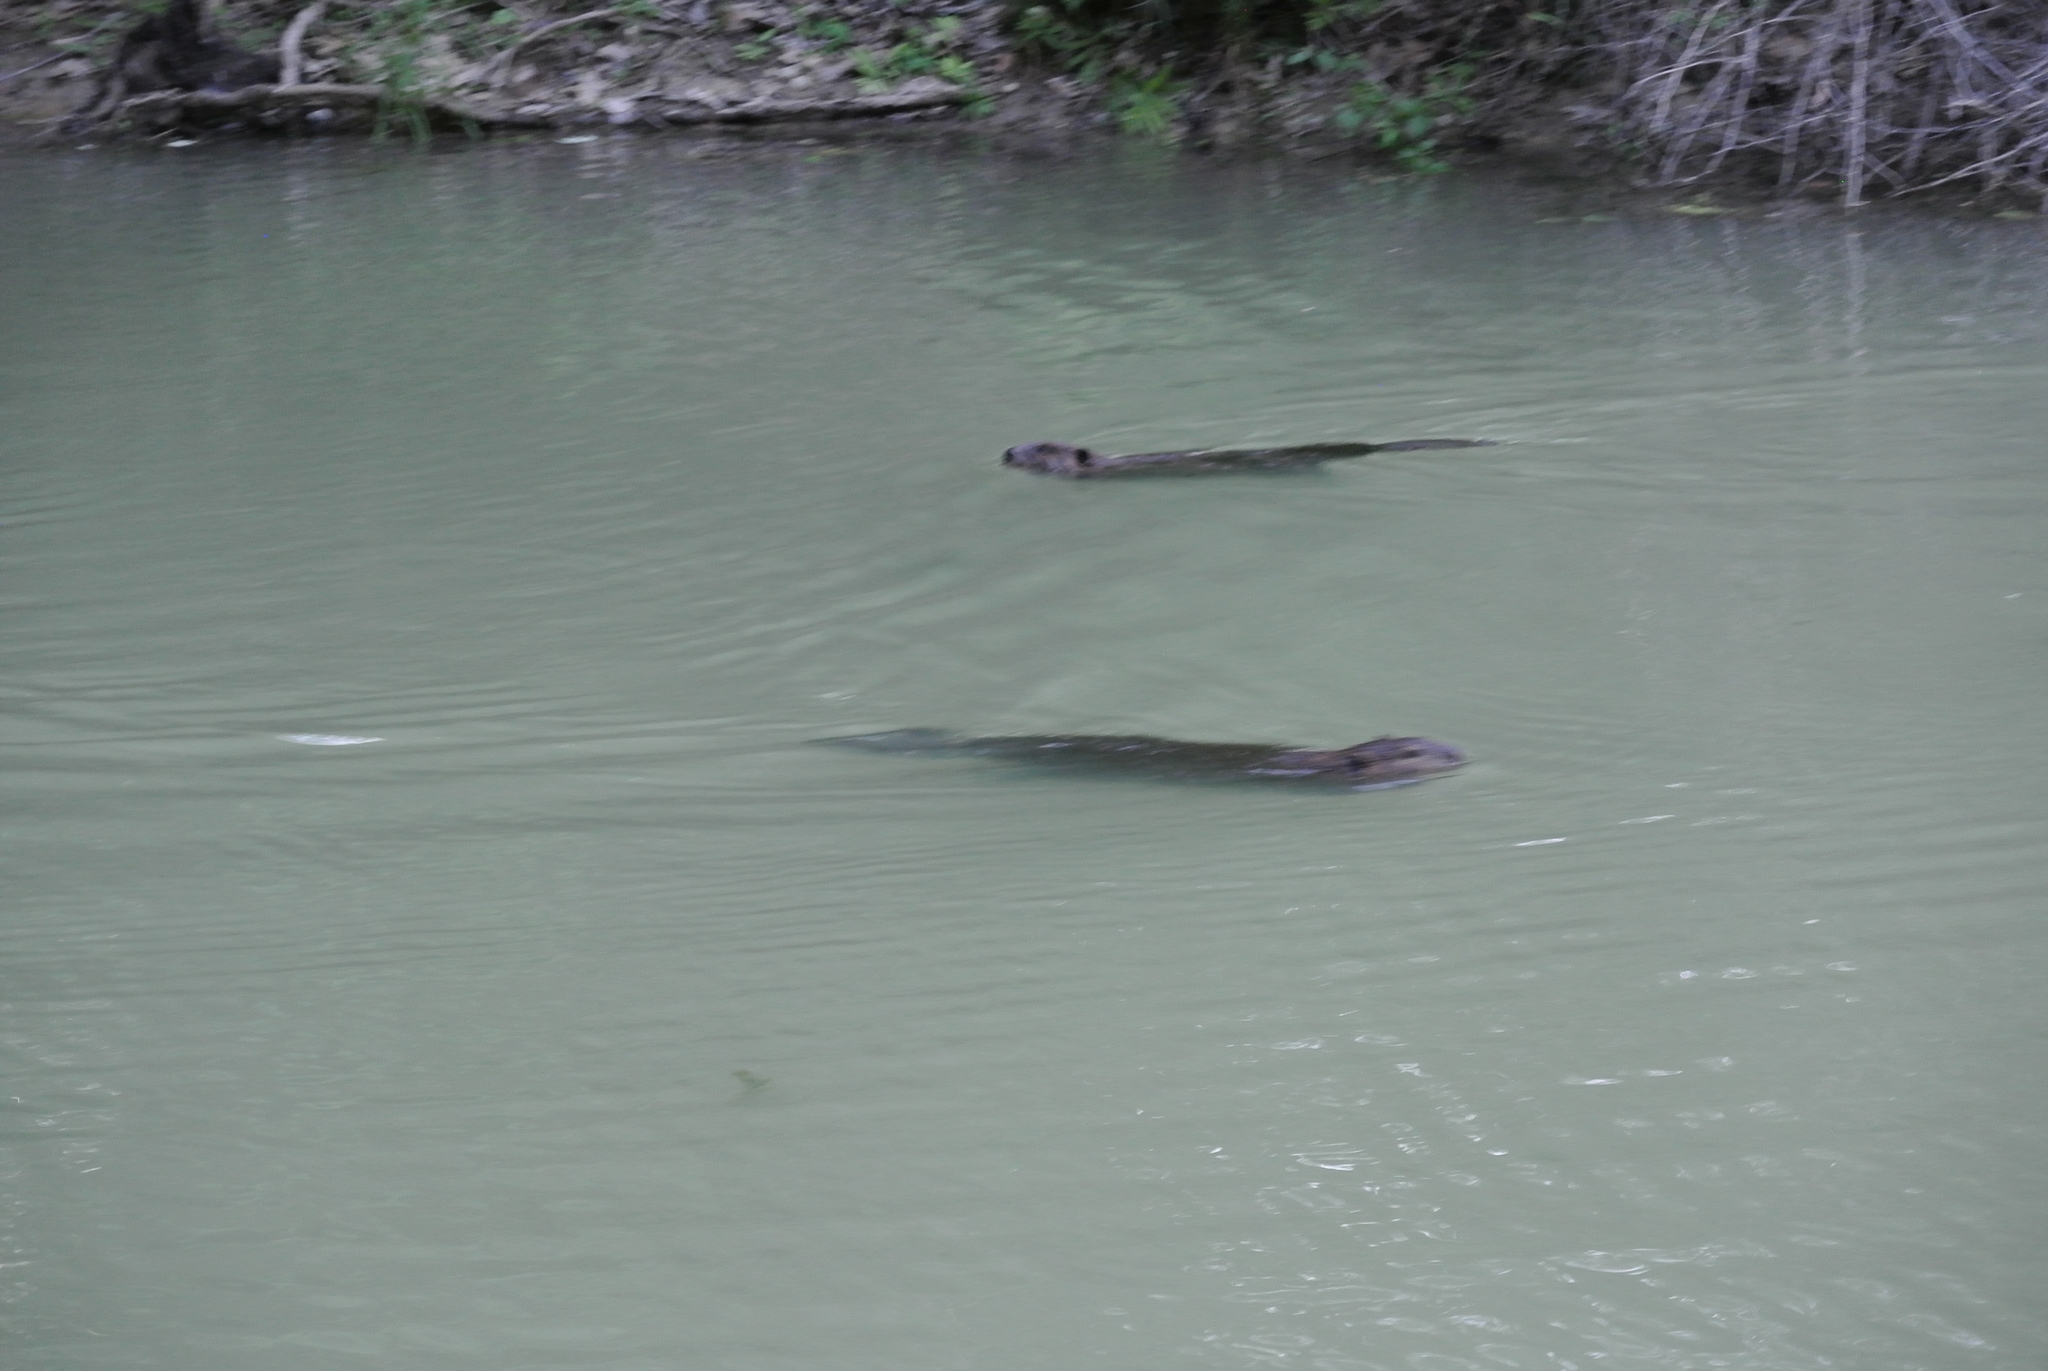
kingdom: Animalia
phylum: Chordata
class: Mammalia
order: Rodentia
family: Castoridae
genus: Castor
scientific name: Castor canadensis
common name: American beaver
